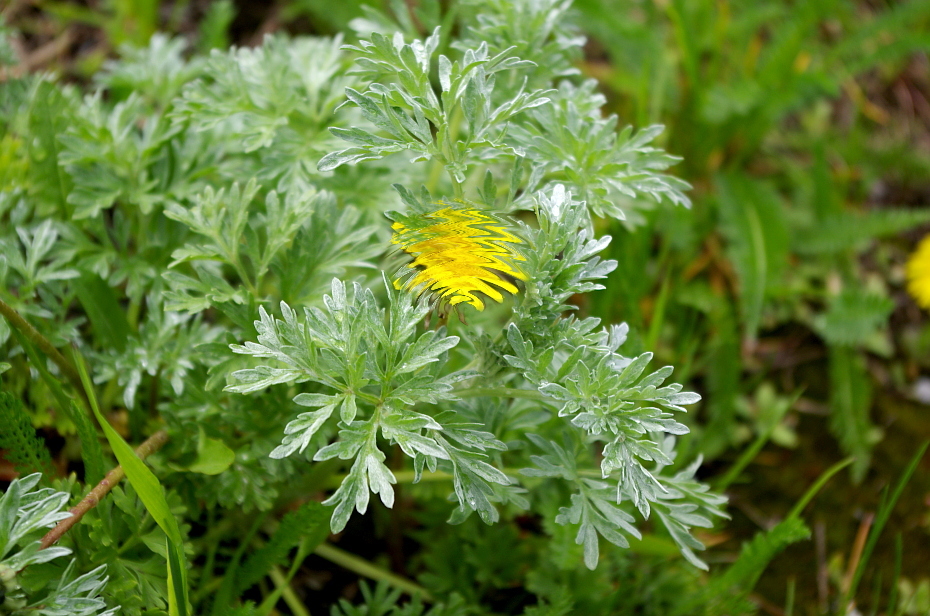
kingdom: Plantae
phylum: Tracheophyta
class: Magnoliopsida
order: Asterales
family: Asteraceae
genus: Artemisia
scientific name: Artemisia absinthium
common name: Wormwood
